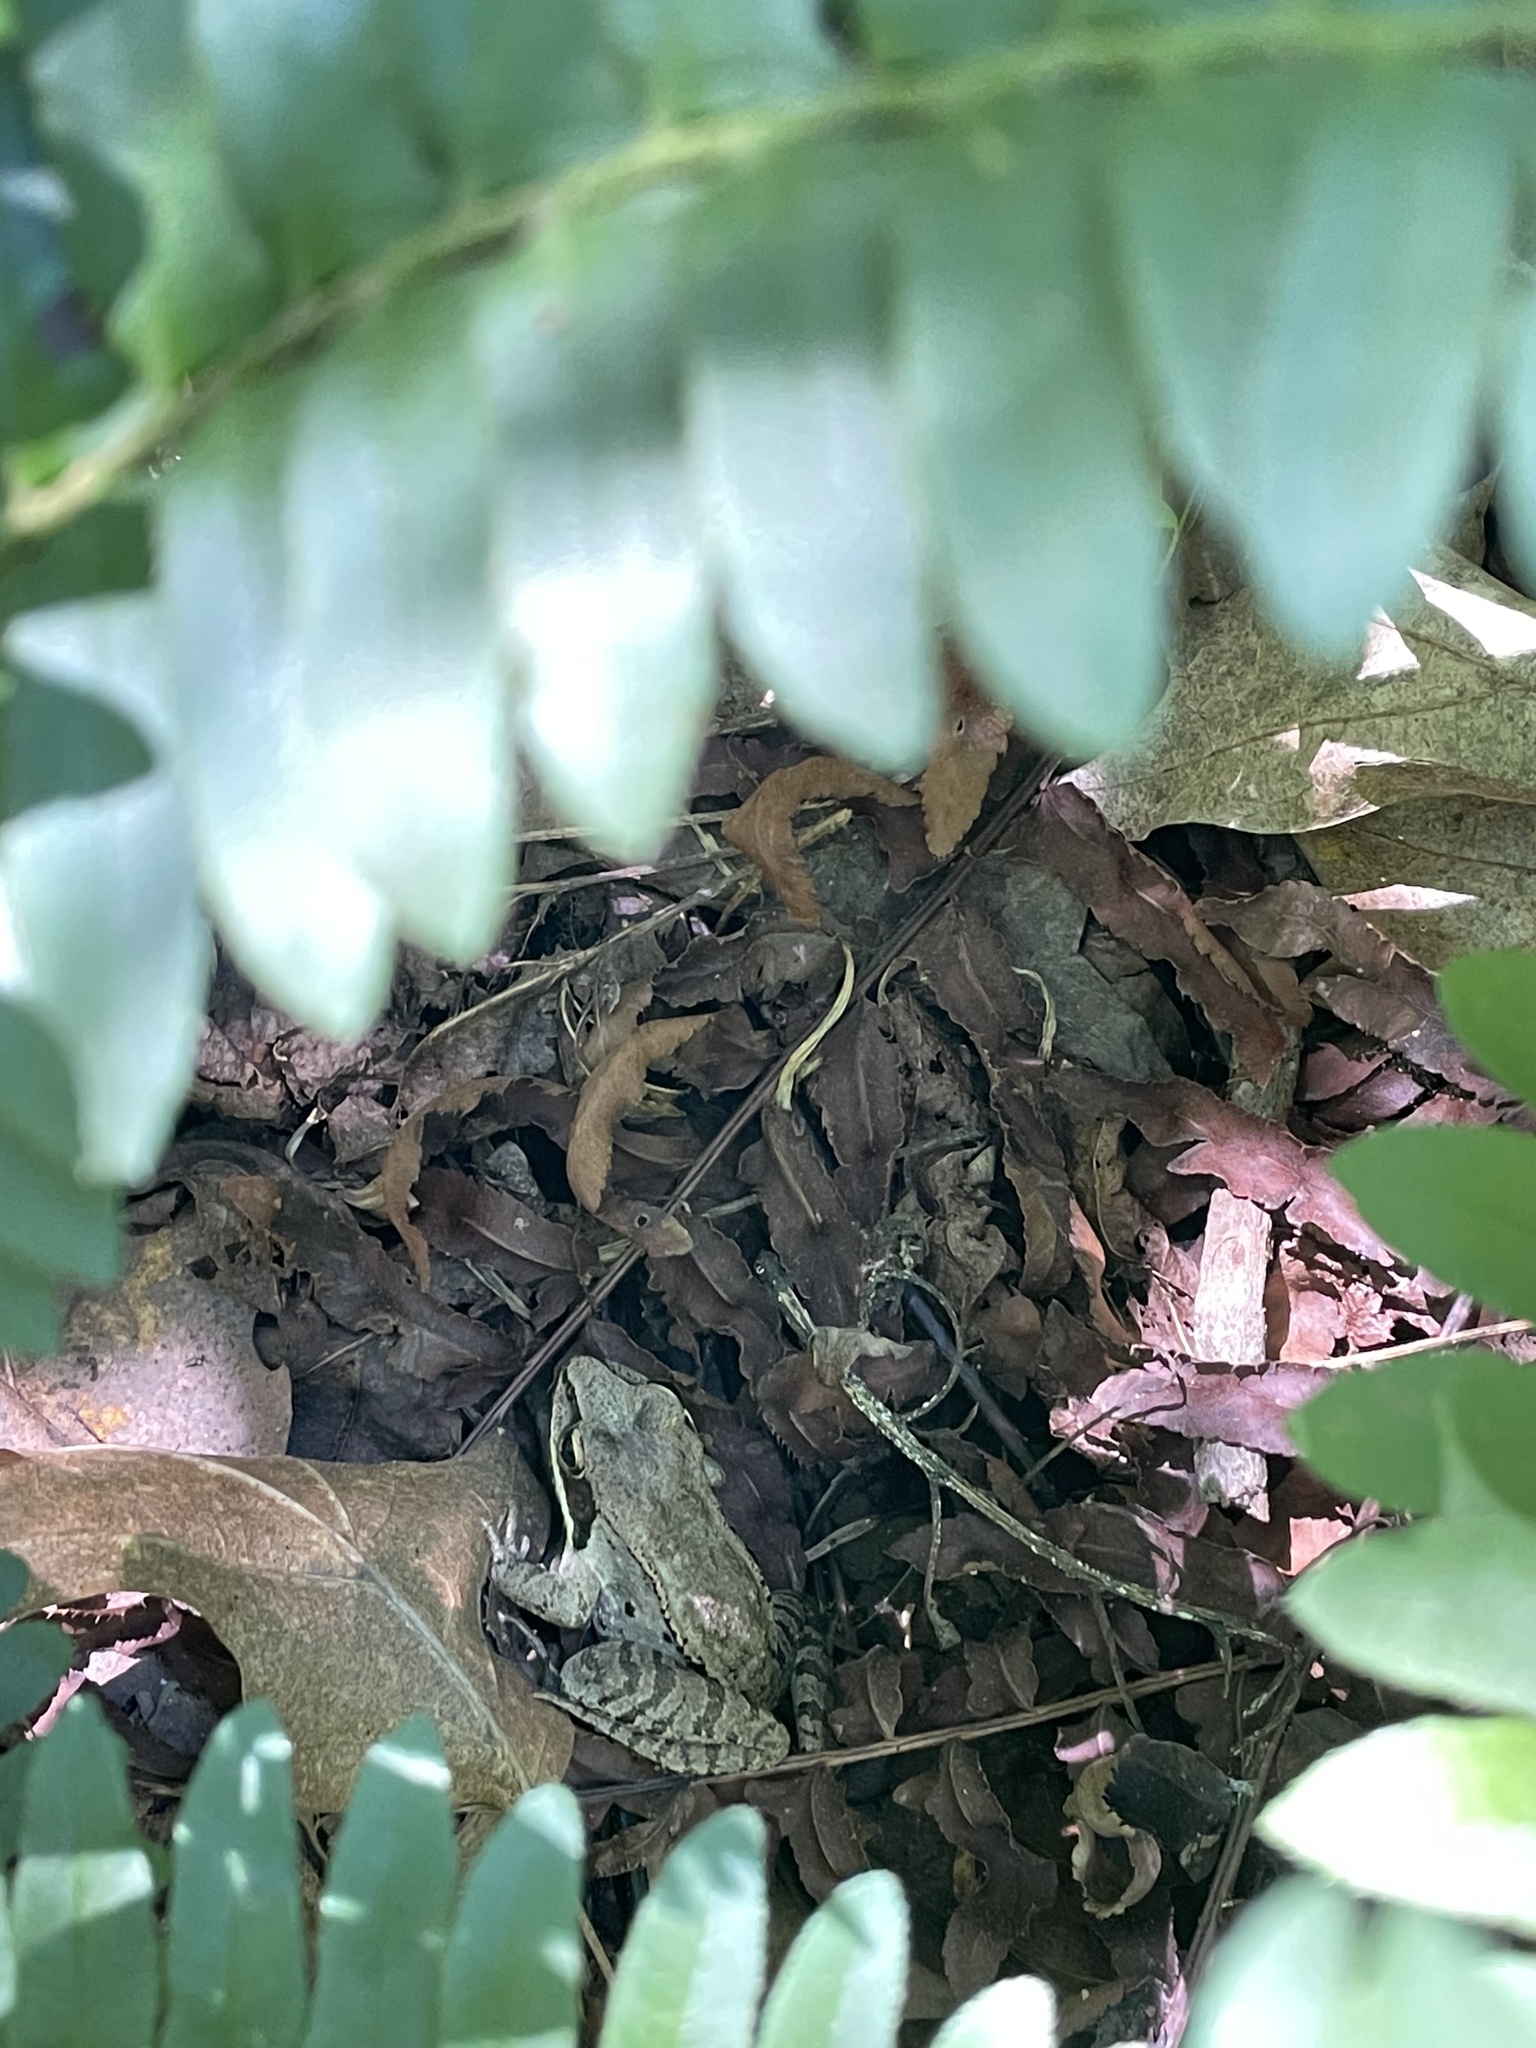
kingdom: Animalia
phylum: Chordata
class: Amphibia
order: Anura
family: Ranidae
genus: Lithobates
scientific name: Lithobates sylvaticus
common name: Wood frog
